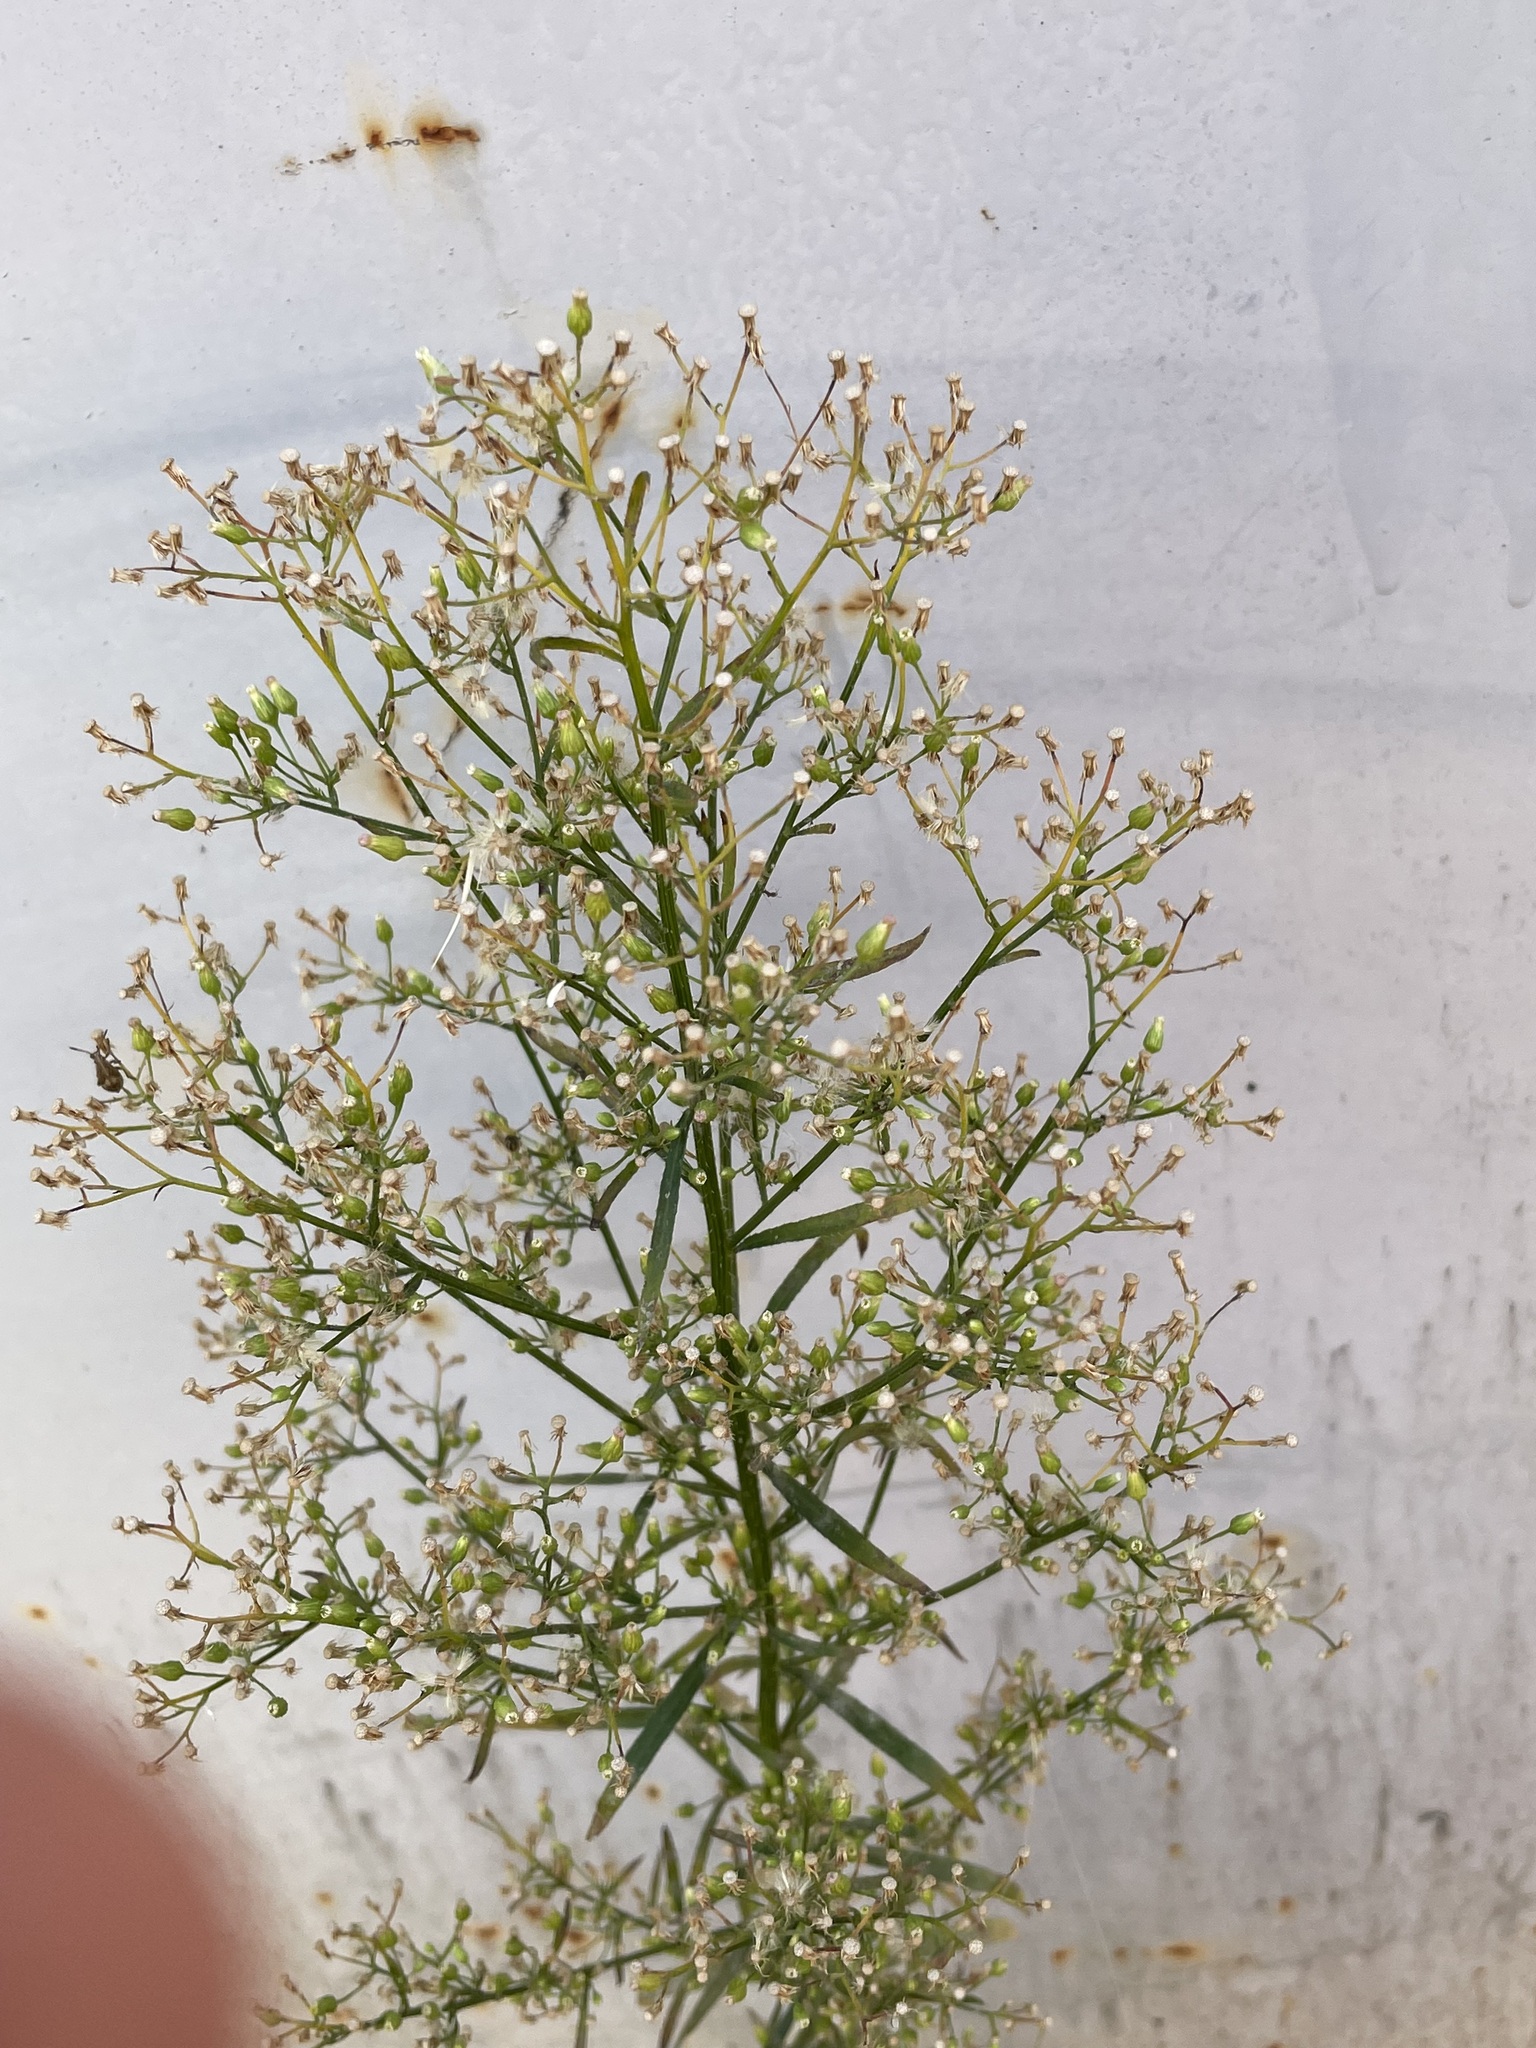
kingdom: Plantae
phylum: Tracheophyta
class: Magnoliopsida
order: Asterales
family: Asteraceae
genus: Erigeron
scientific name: Erigeron canadensis
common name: Canadian fleabane
